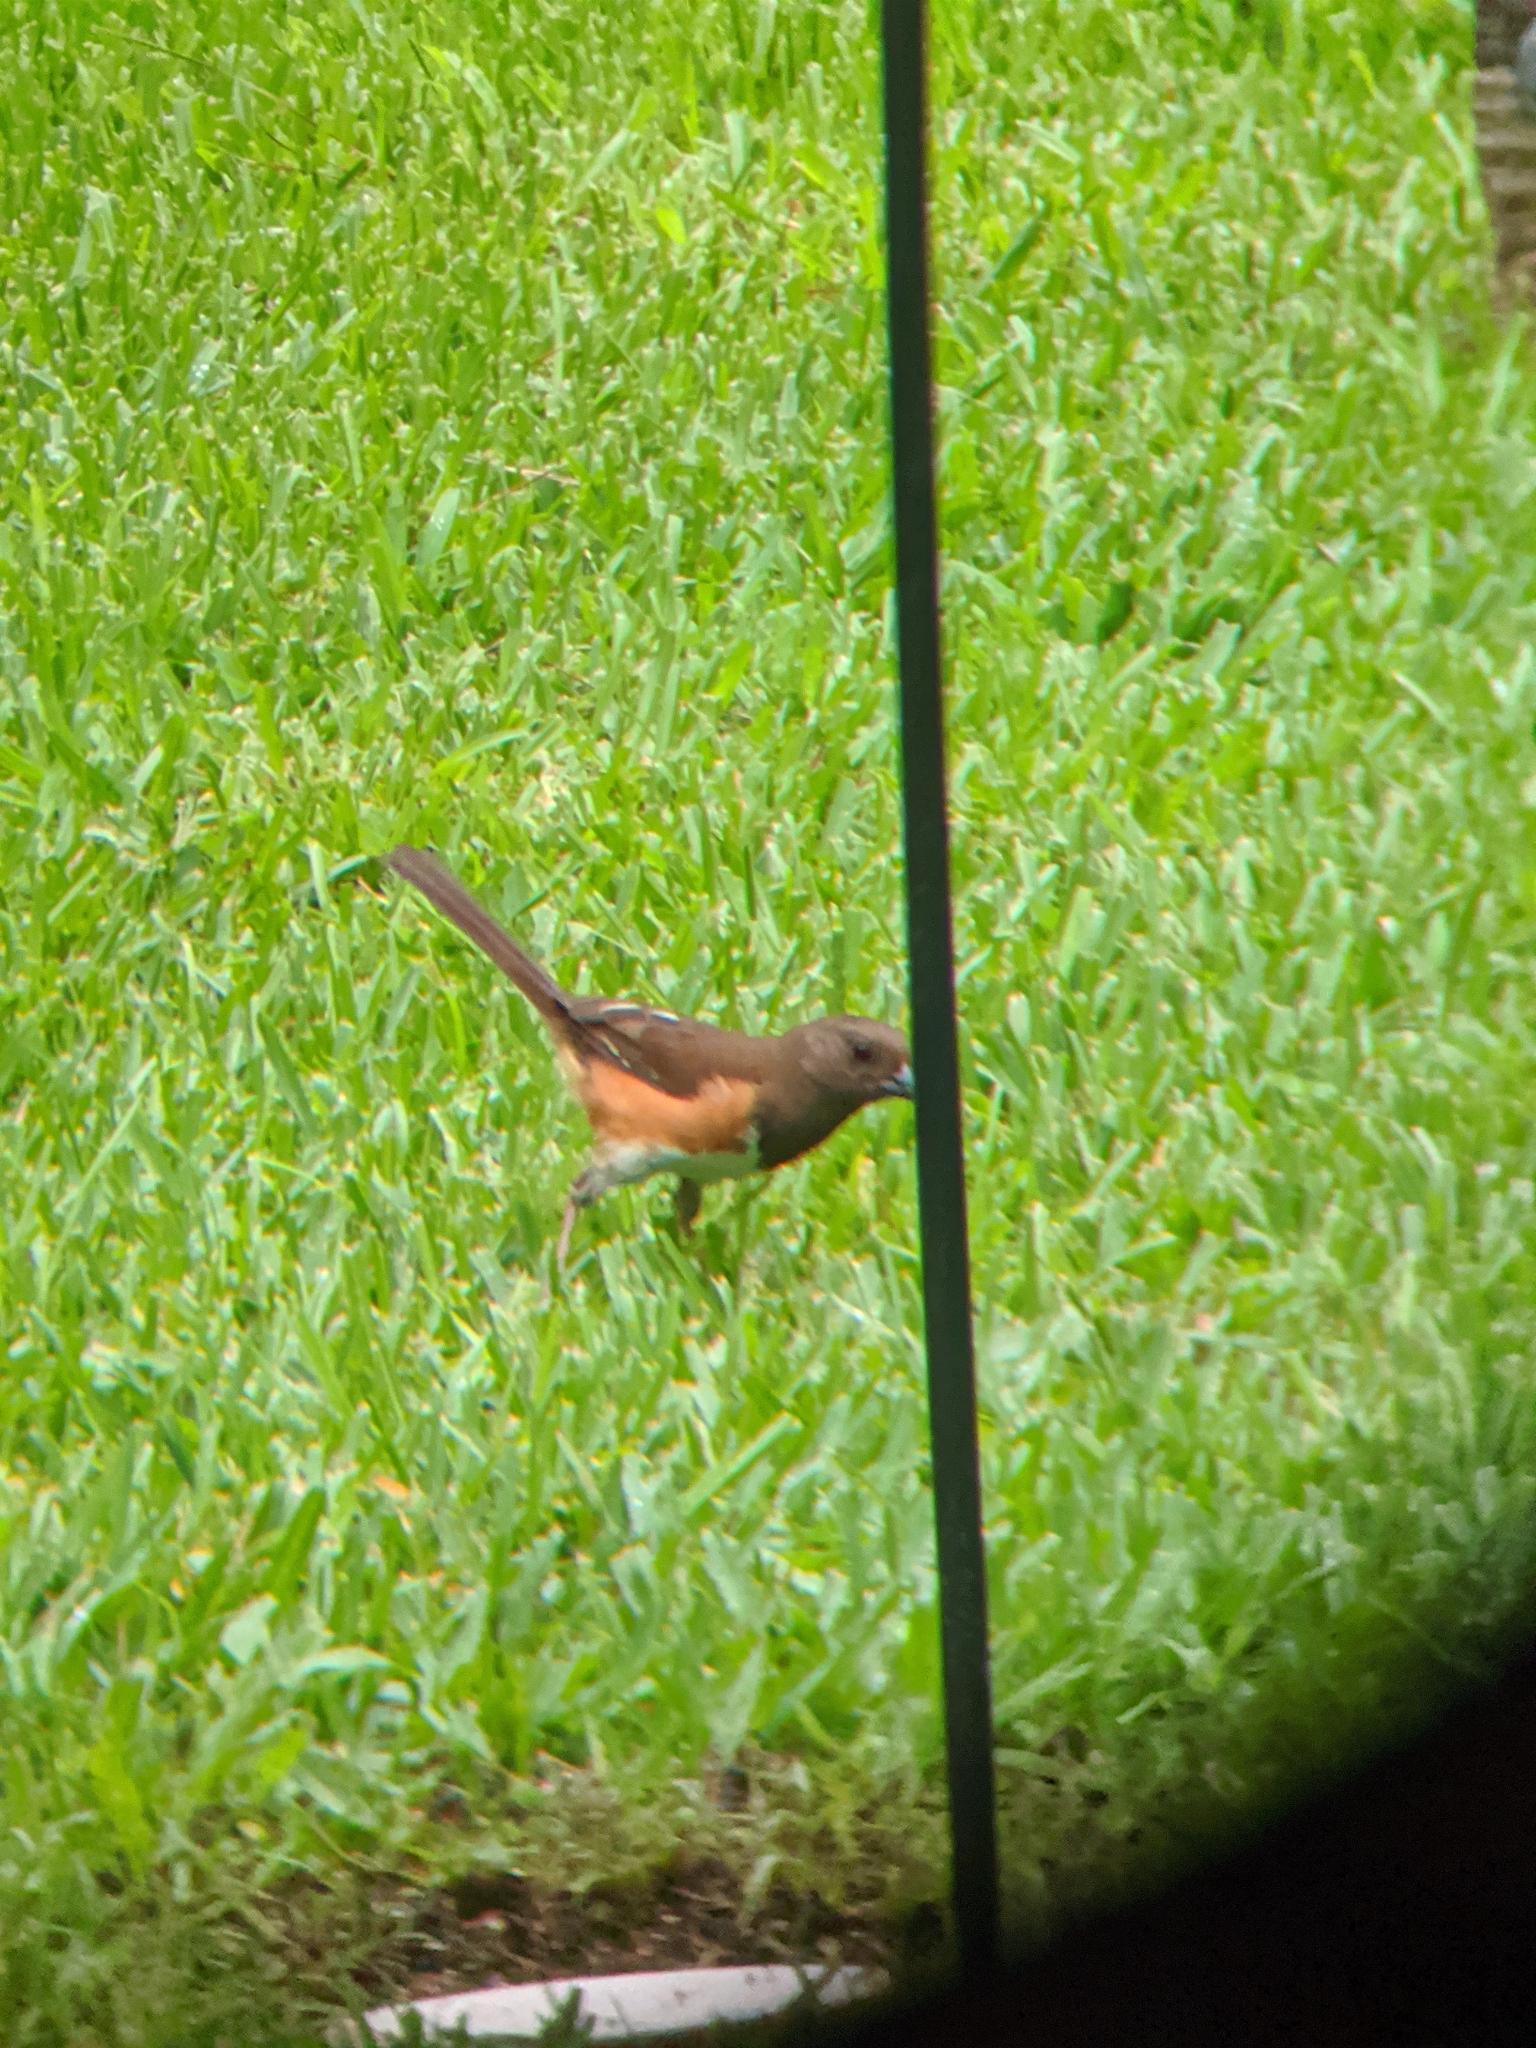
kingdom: Animalia
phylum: Chordata
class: Aves
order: Passeriformes
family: Passerellidae
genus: Pipilo
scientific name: Pipilo erythrophthalmus
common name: Eastern towhee
